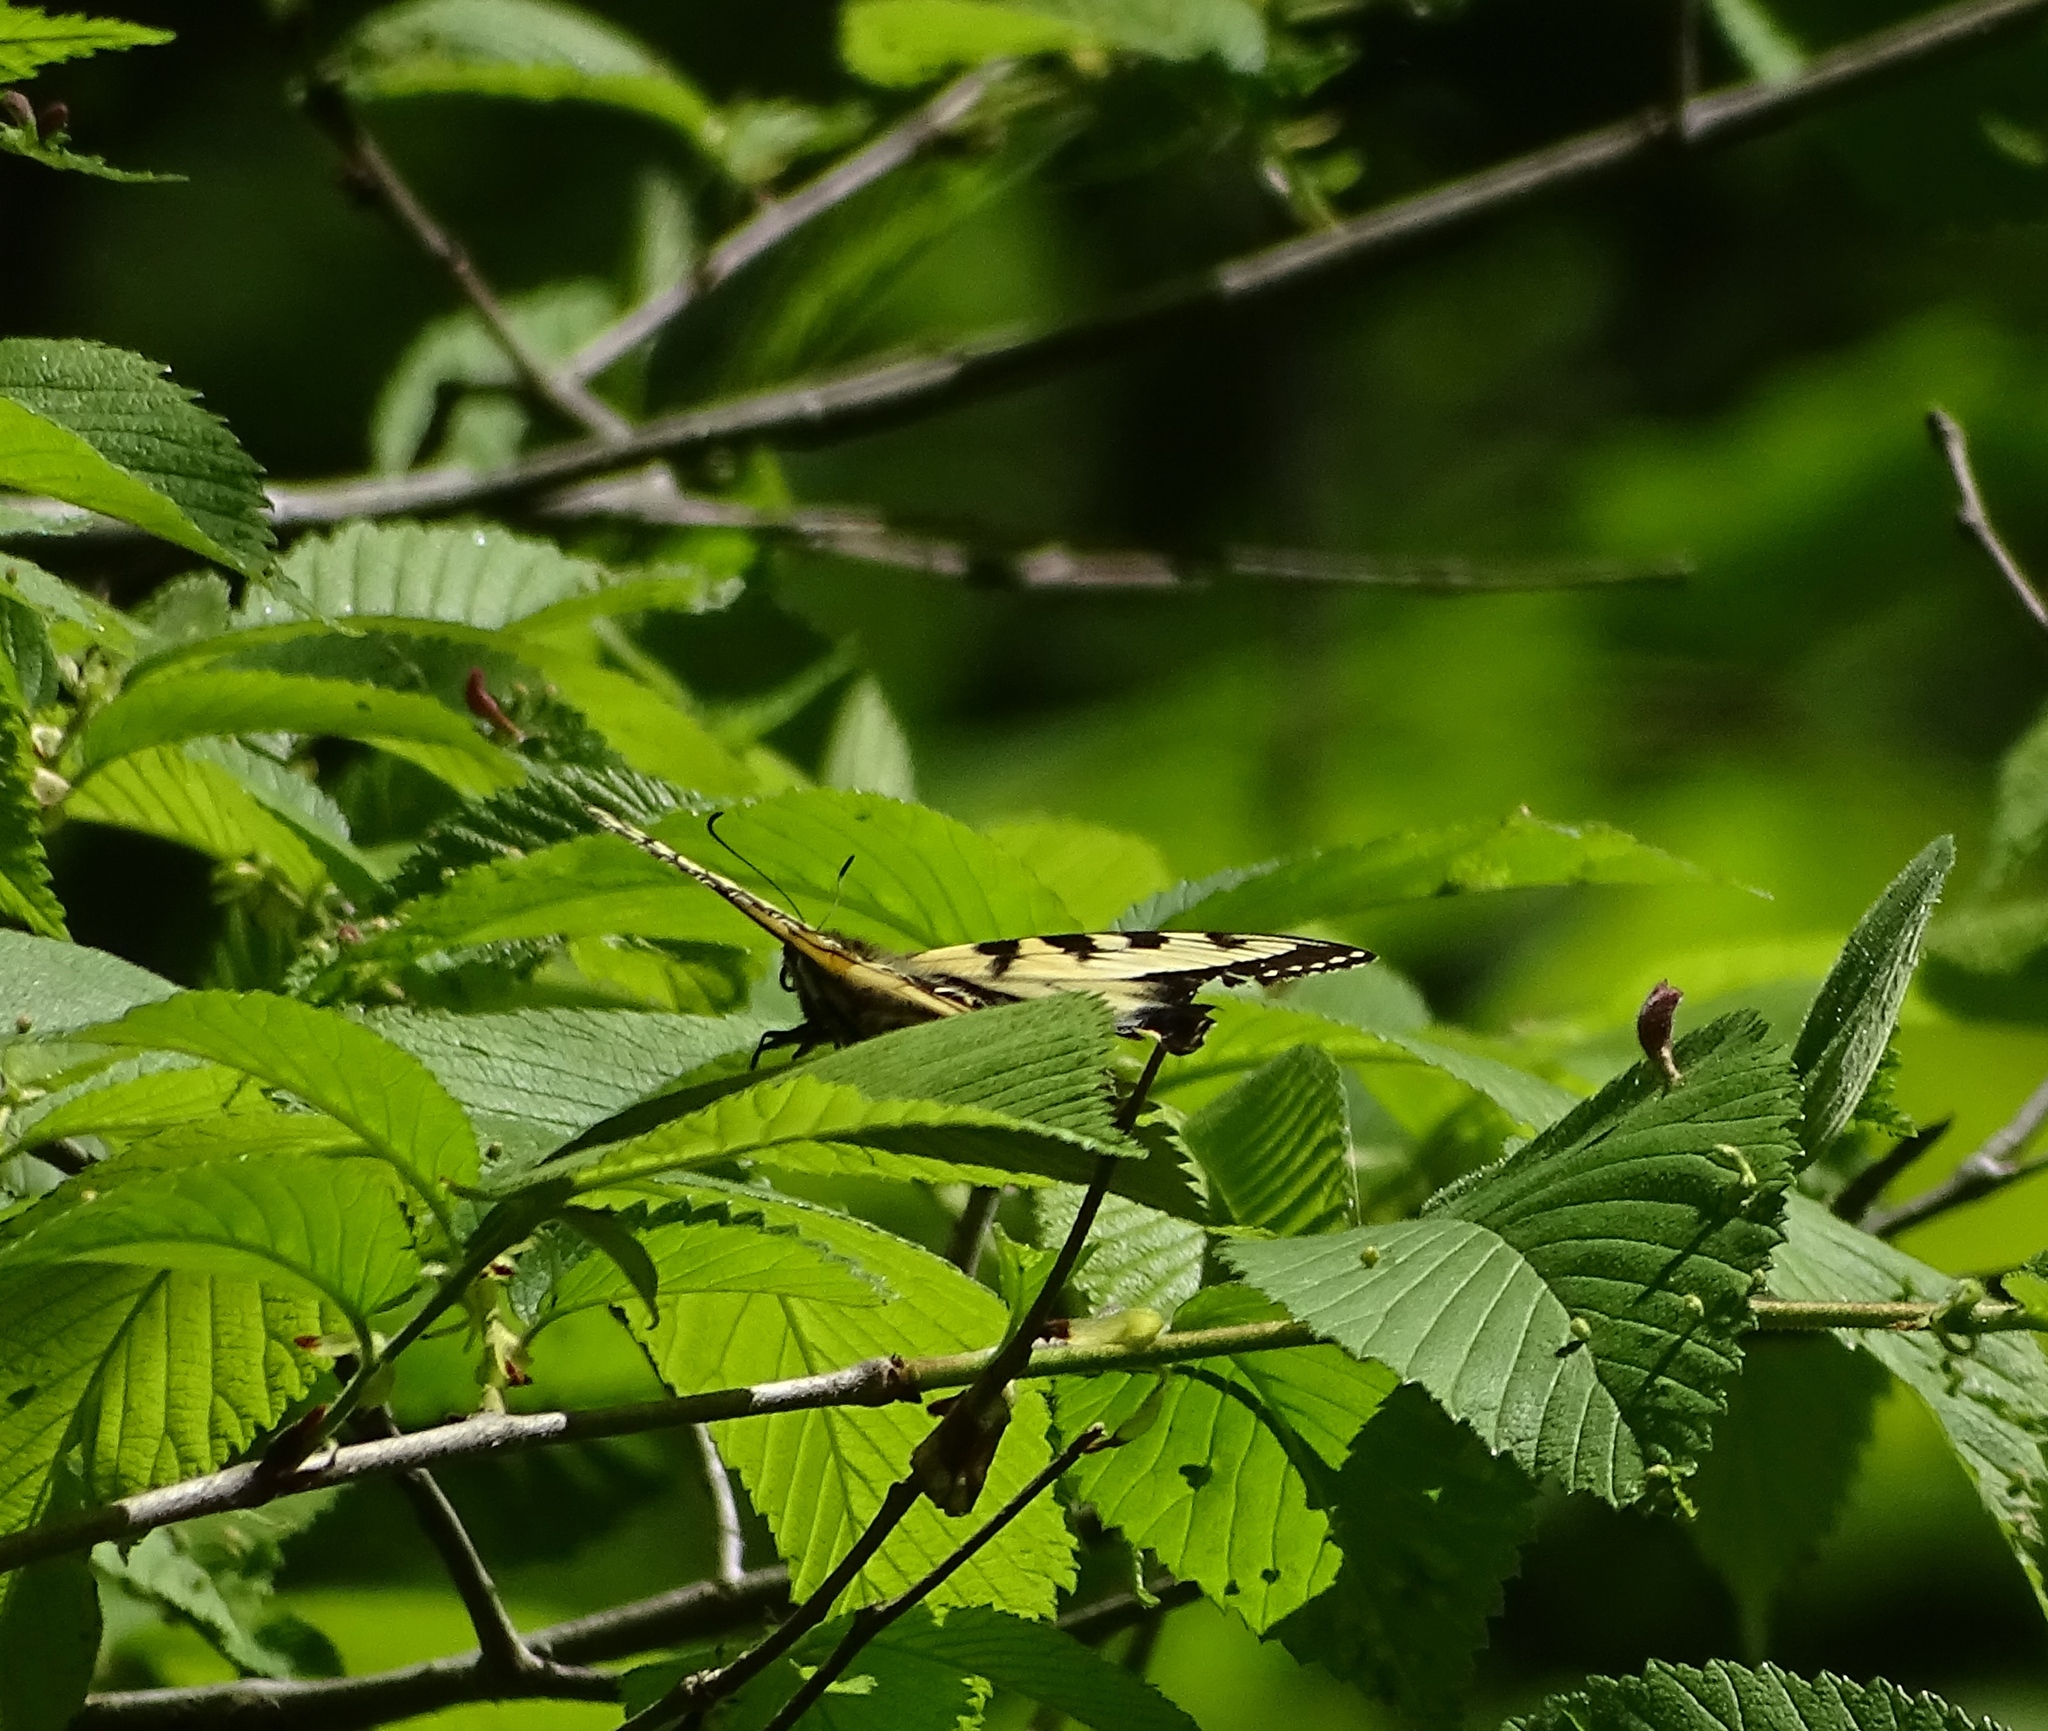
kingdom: Animalia
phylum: Arthropoda
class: Insecta
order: Lepidoptera
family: Papilionidae
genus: Papilio
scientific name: Papilio glaucus
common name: Tiger swallowtail
